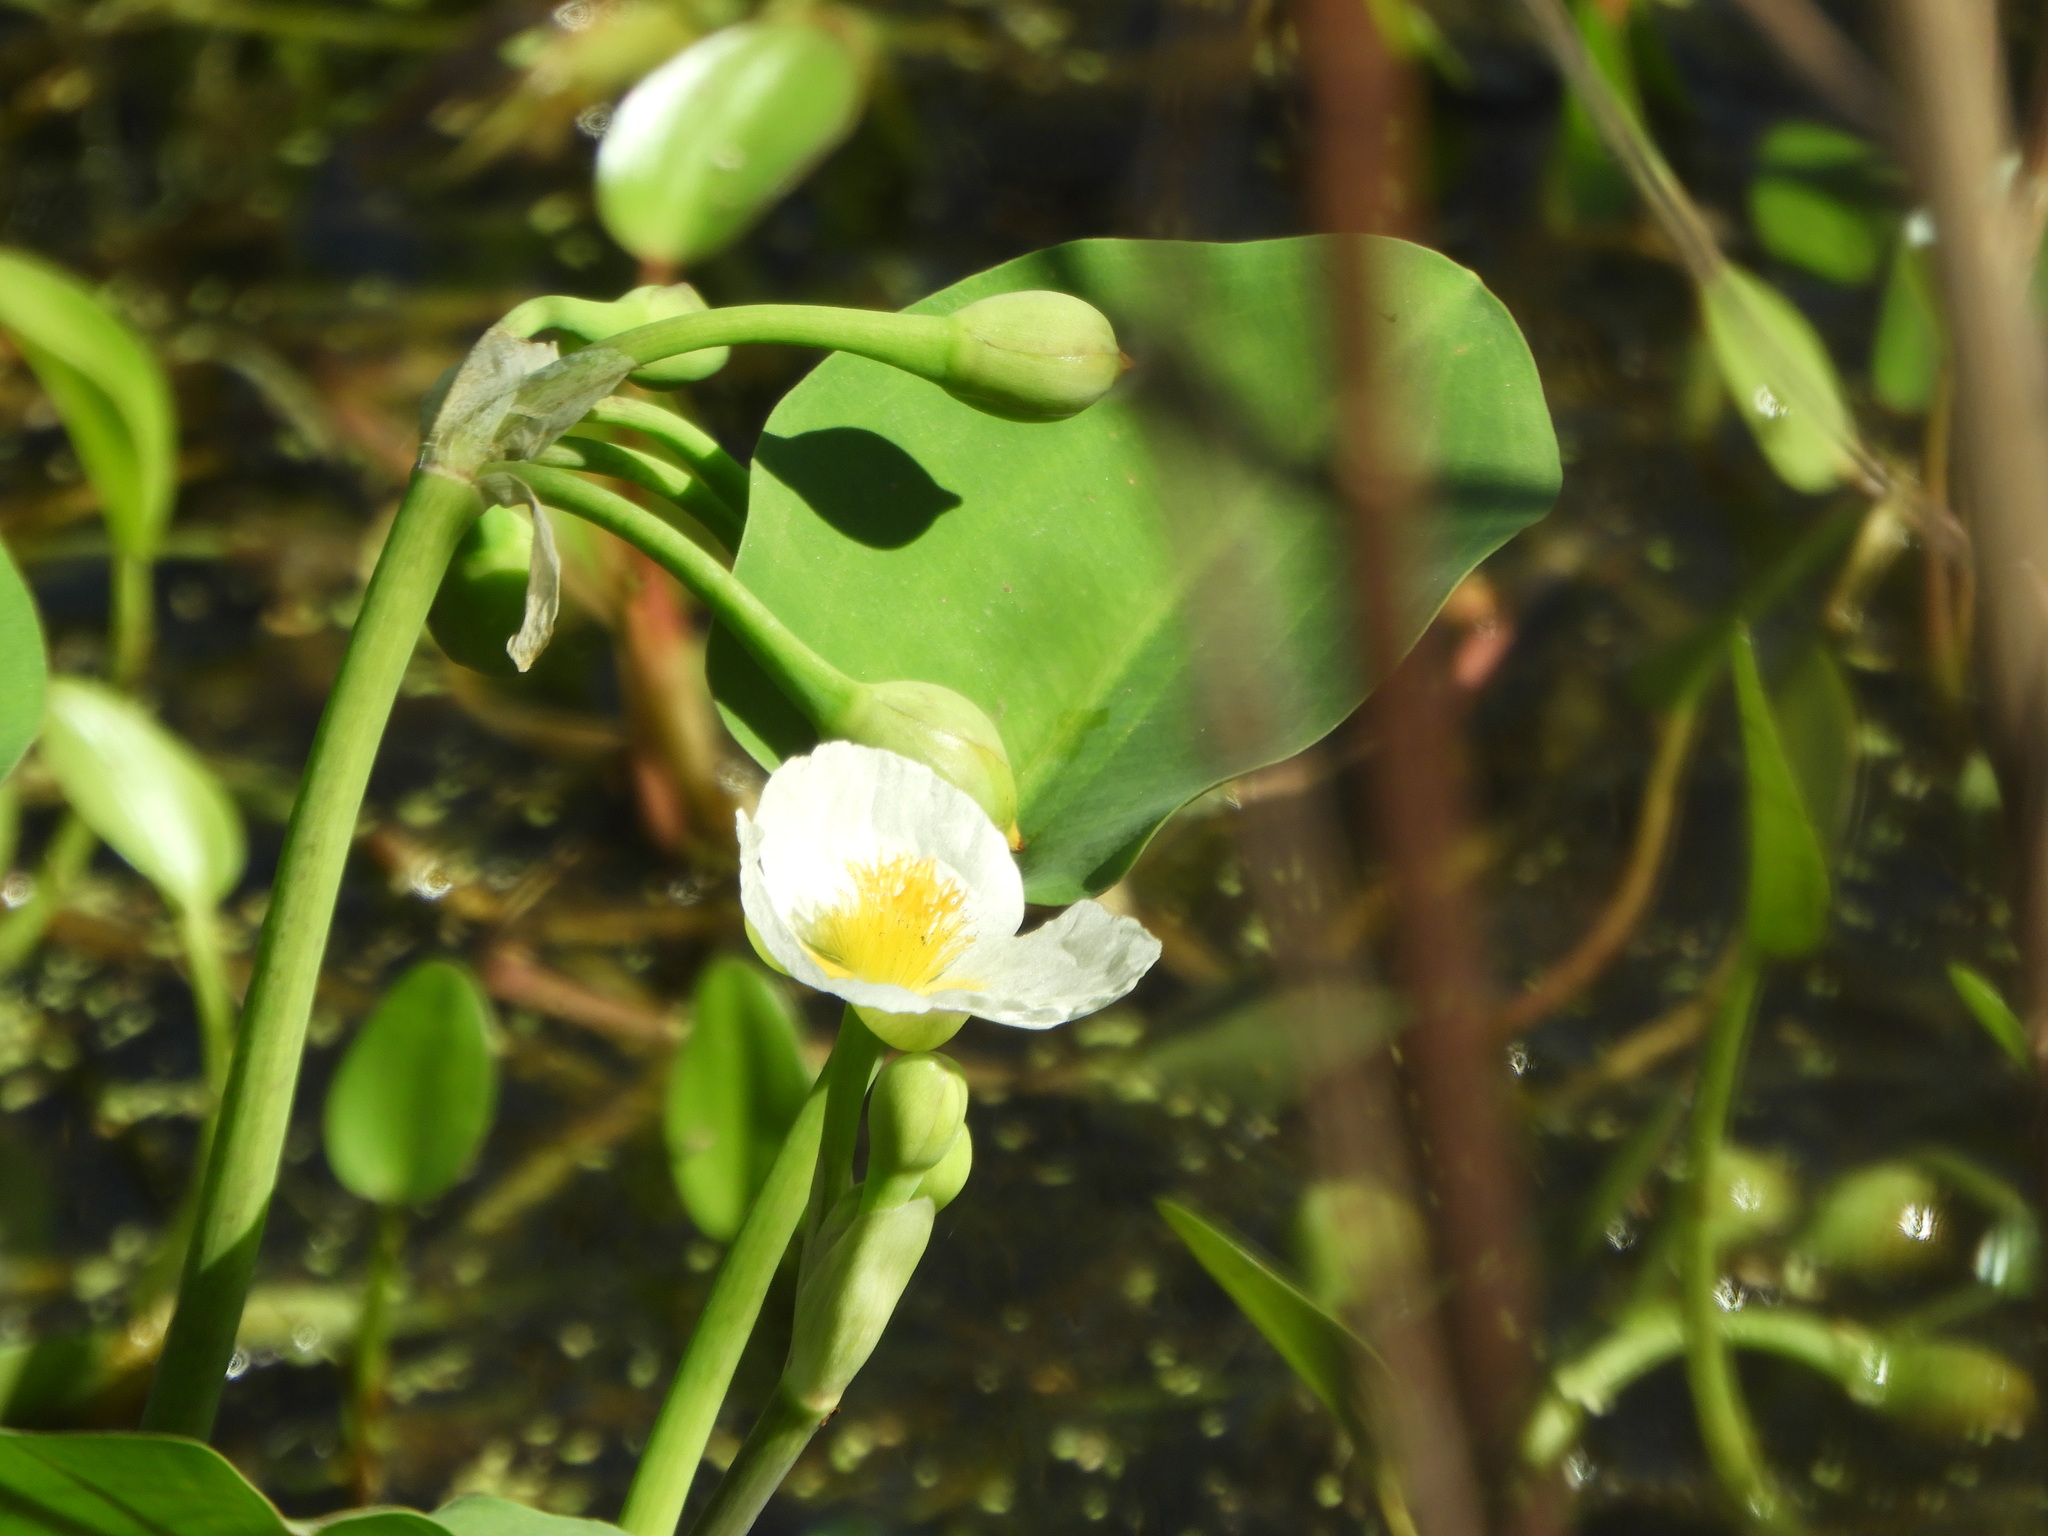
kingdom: Plantae
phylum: Tracheophyta
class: Liliopsida
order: Alismatales
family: Alismataceae
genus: Limnocharis
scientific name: Limnocharis flava
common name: Sawah-flower-rush
